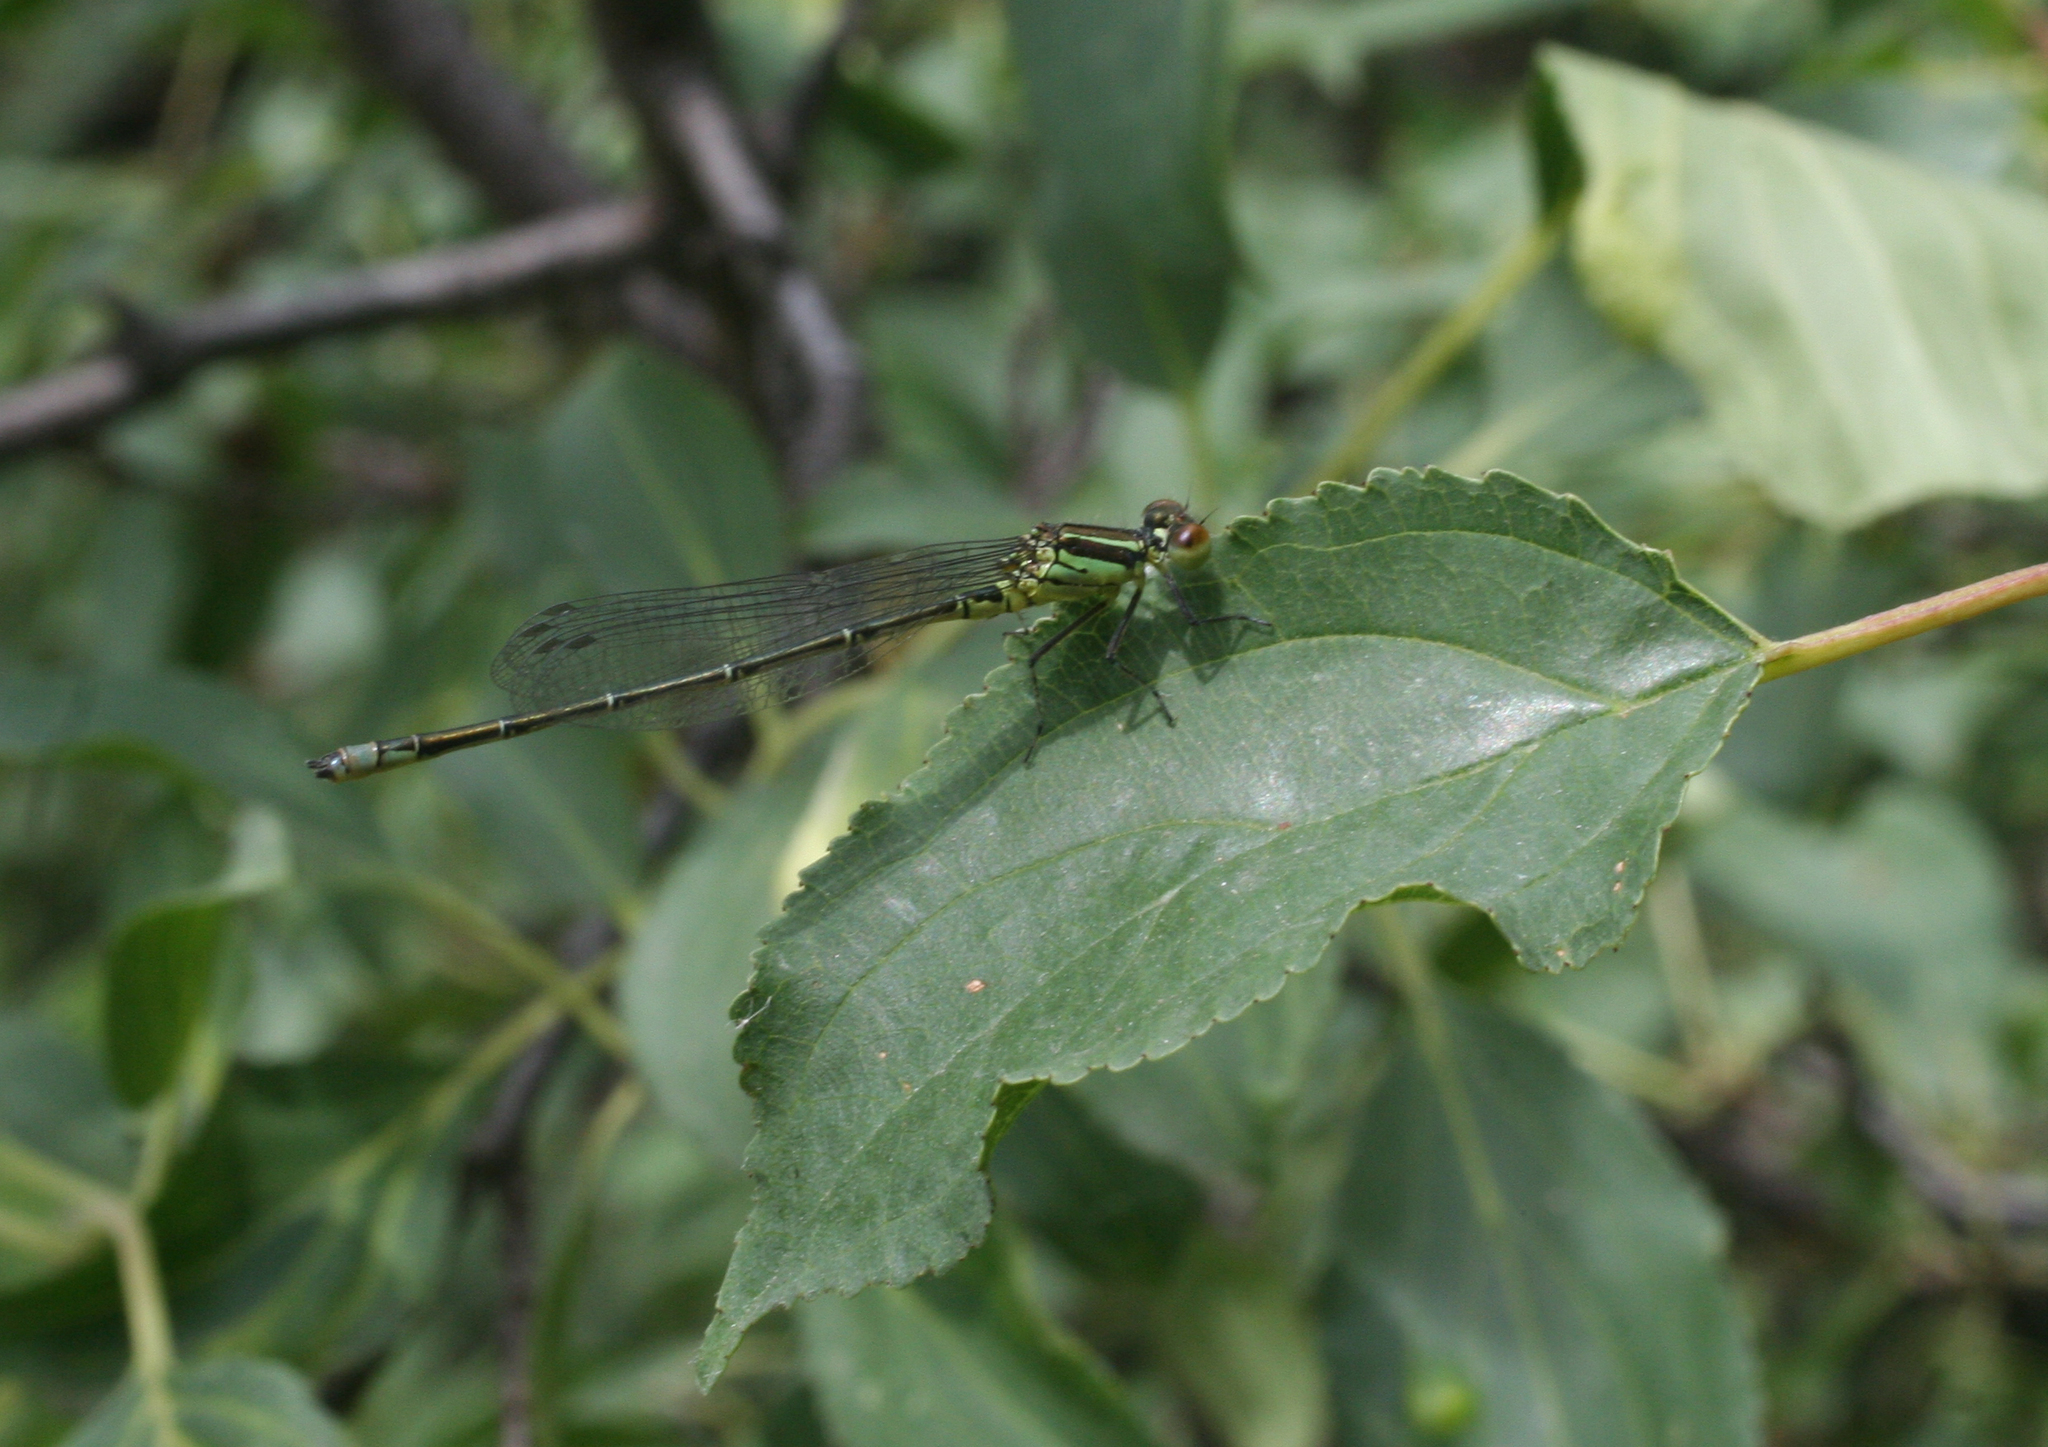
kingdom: Animalia
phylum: Arthropoda
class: Insecta
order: Odonata
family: Coenagrionidae
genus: Erythromma
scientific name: Erythromma viridulum
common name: Small red-eyed damselfly
